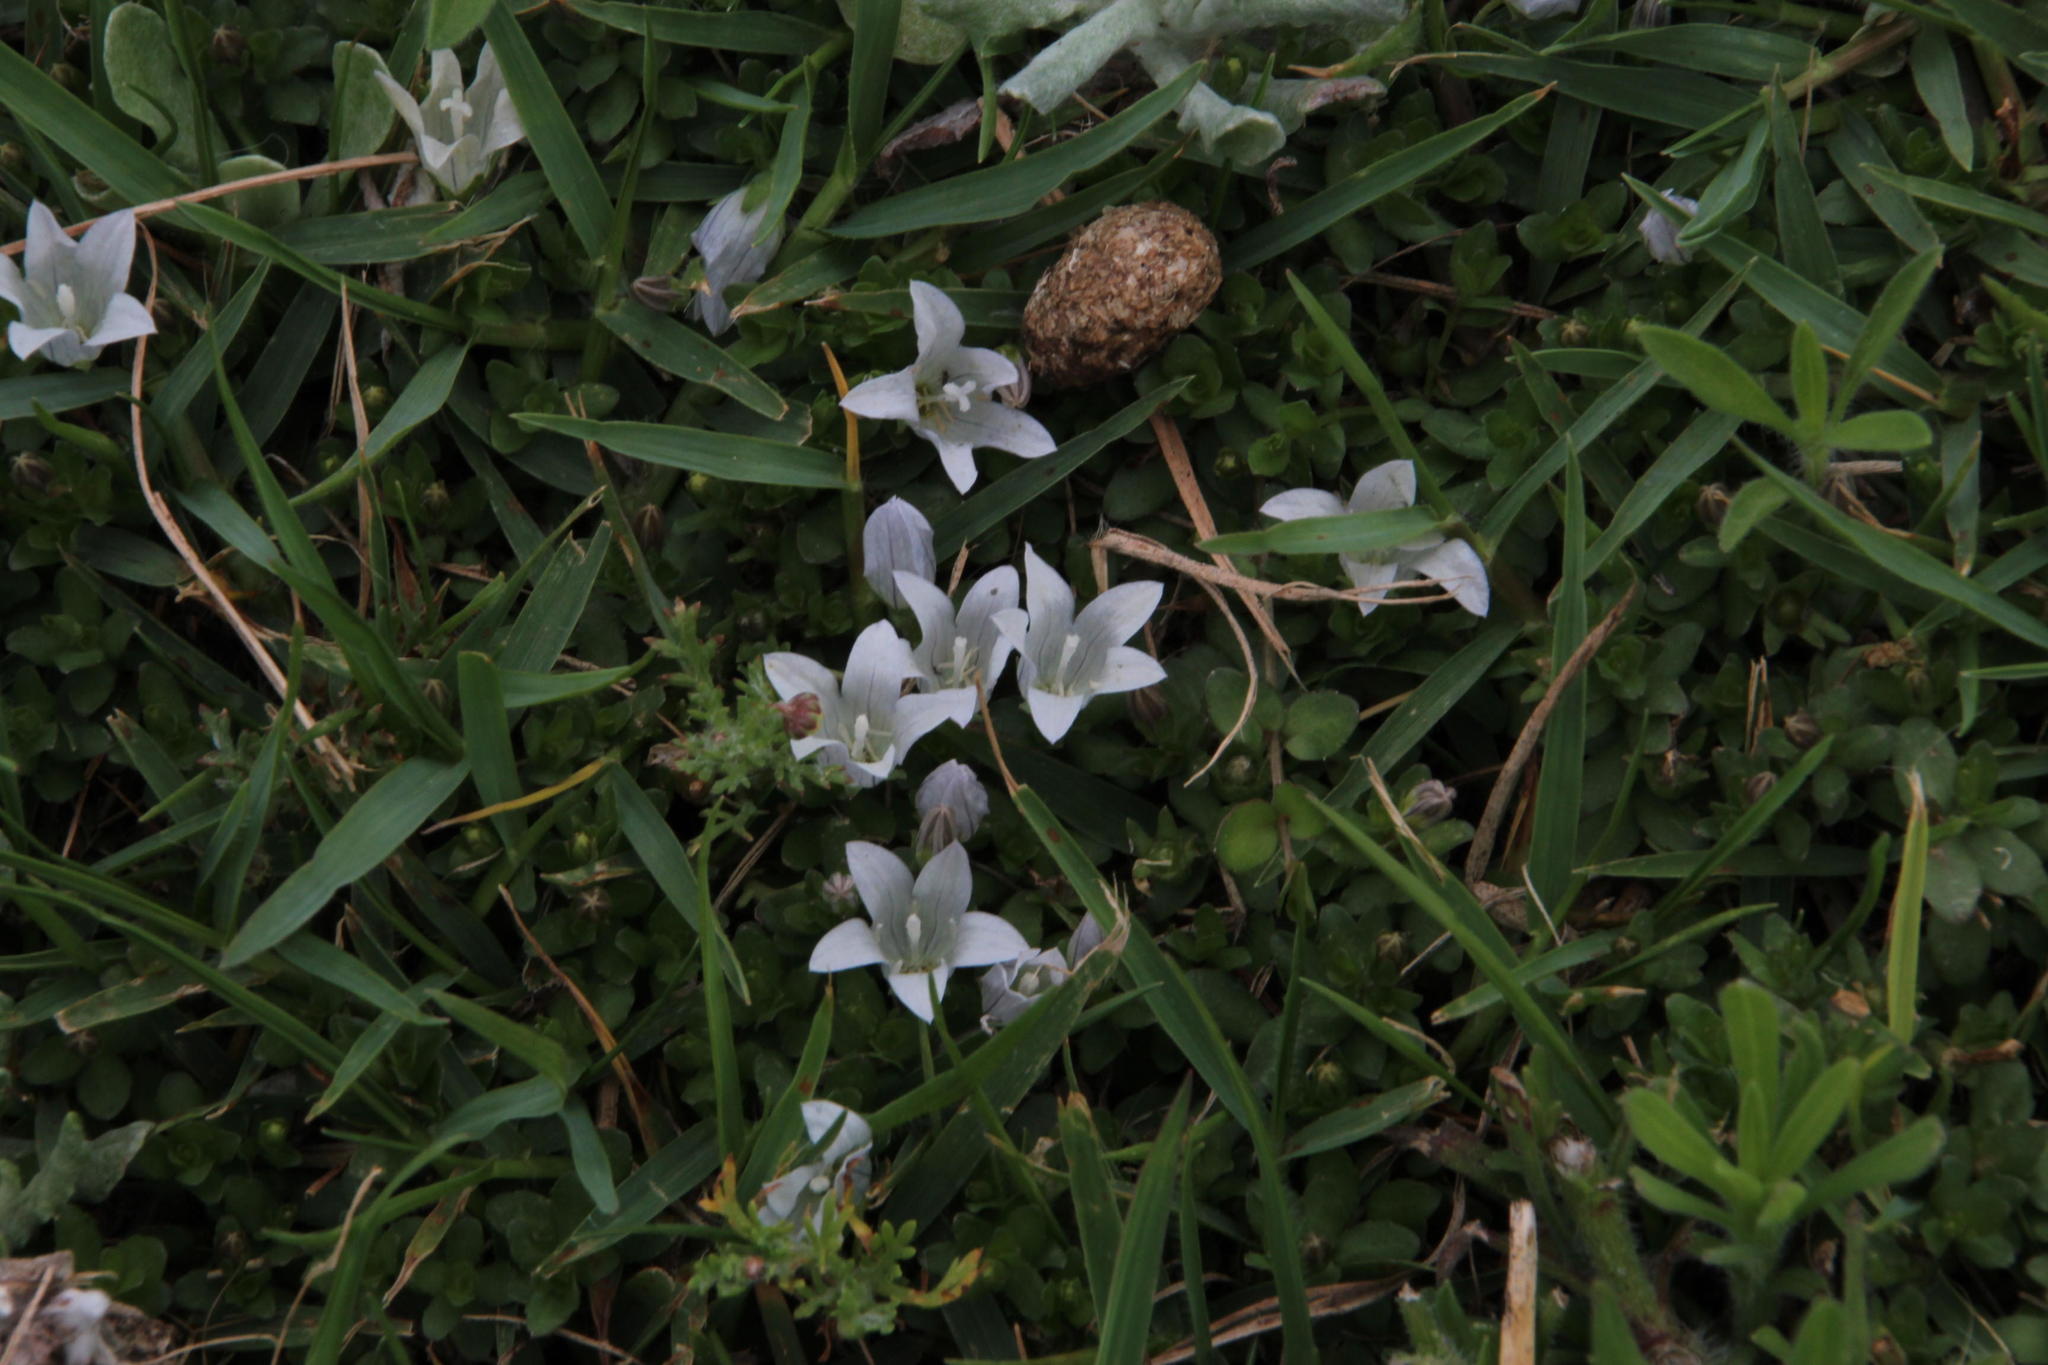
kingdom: Plantae
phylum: Tracheophyta
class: Magnoliopsida
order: Asterales
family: Campanulaceae
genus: Wahlenbergia
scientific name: Wahlenbergia procumbens
